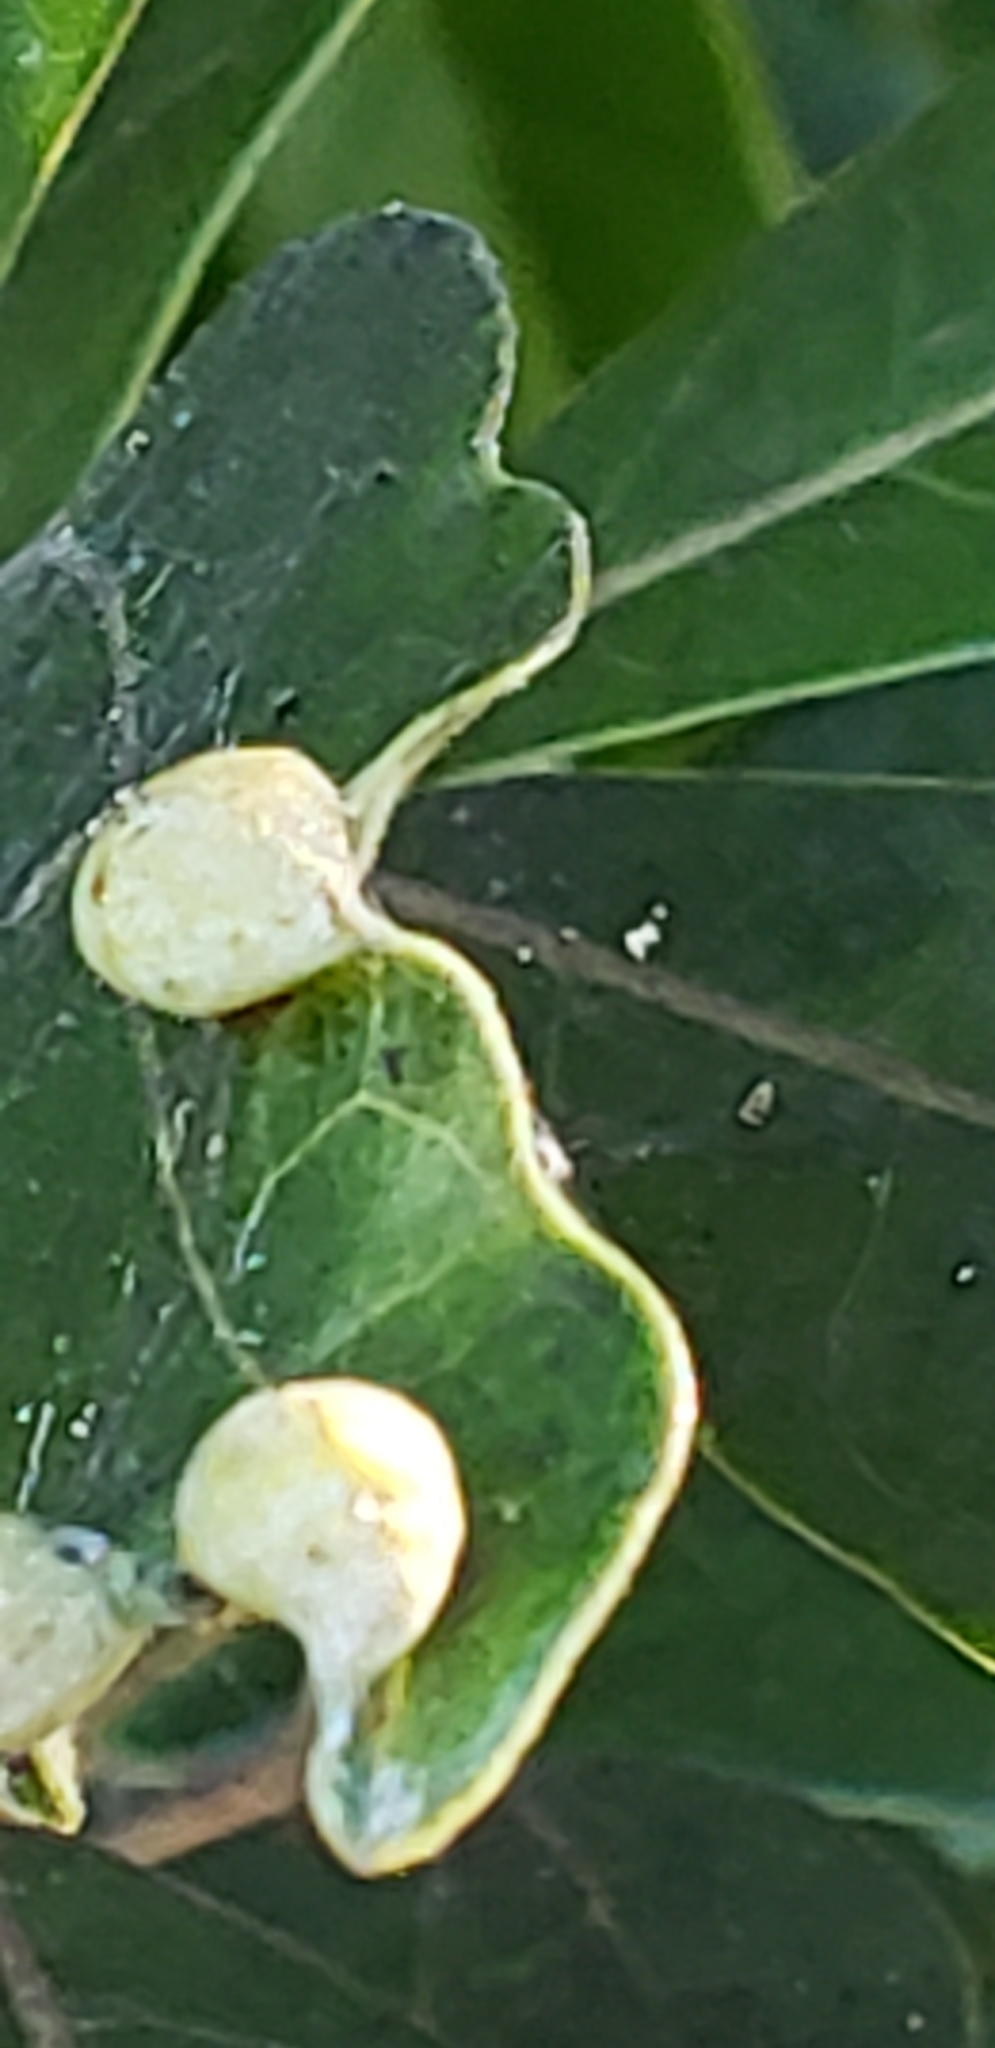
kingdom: Plantae
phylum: Tracheophyta
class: Magnoliopsida
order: Laurales
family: Lauraceae
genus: Persea
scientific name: Persea palustris
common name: Swampbay
